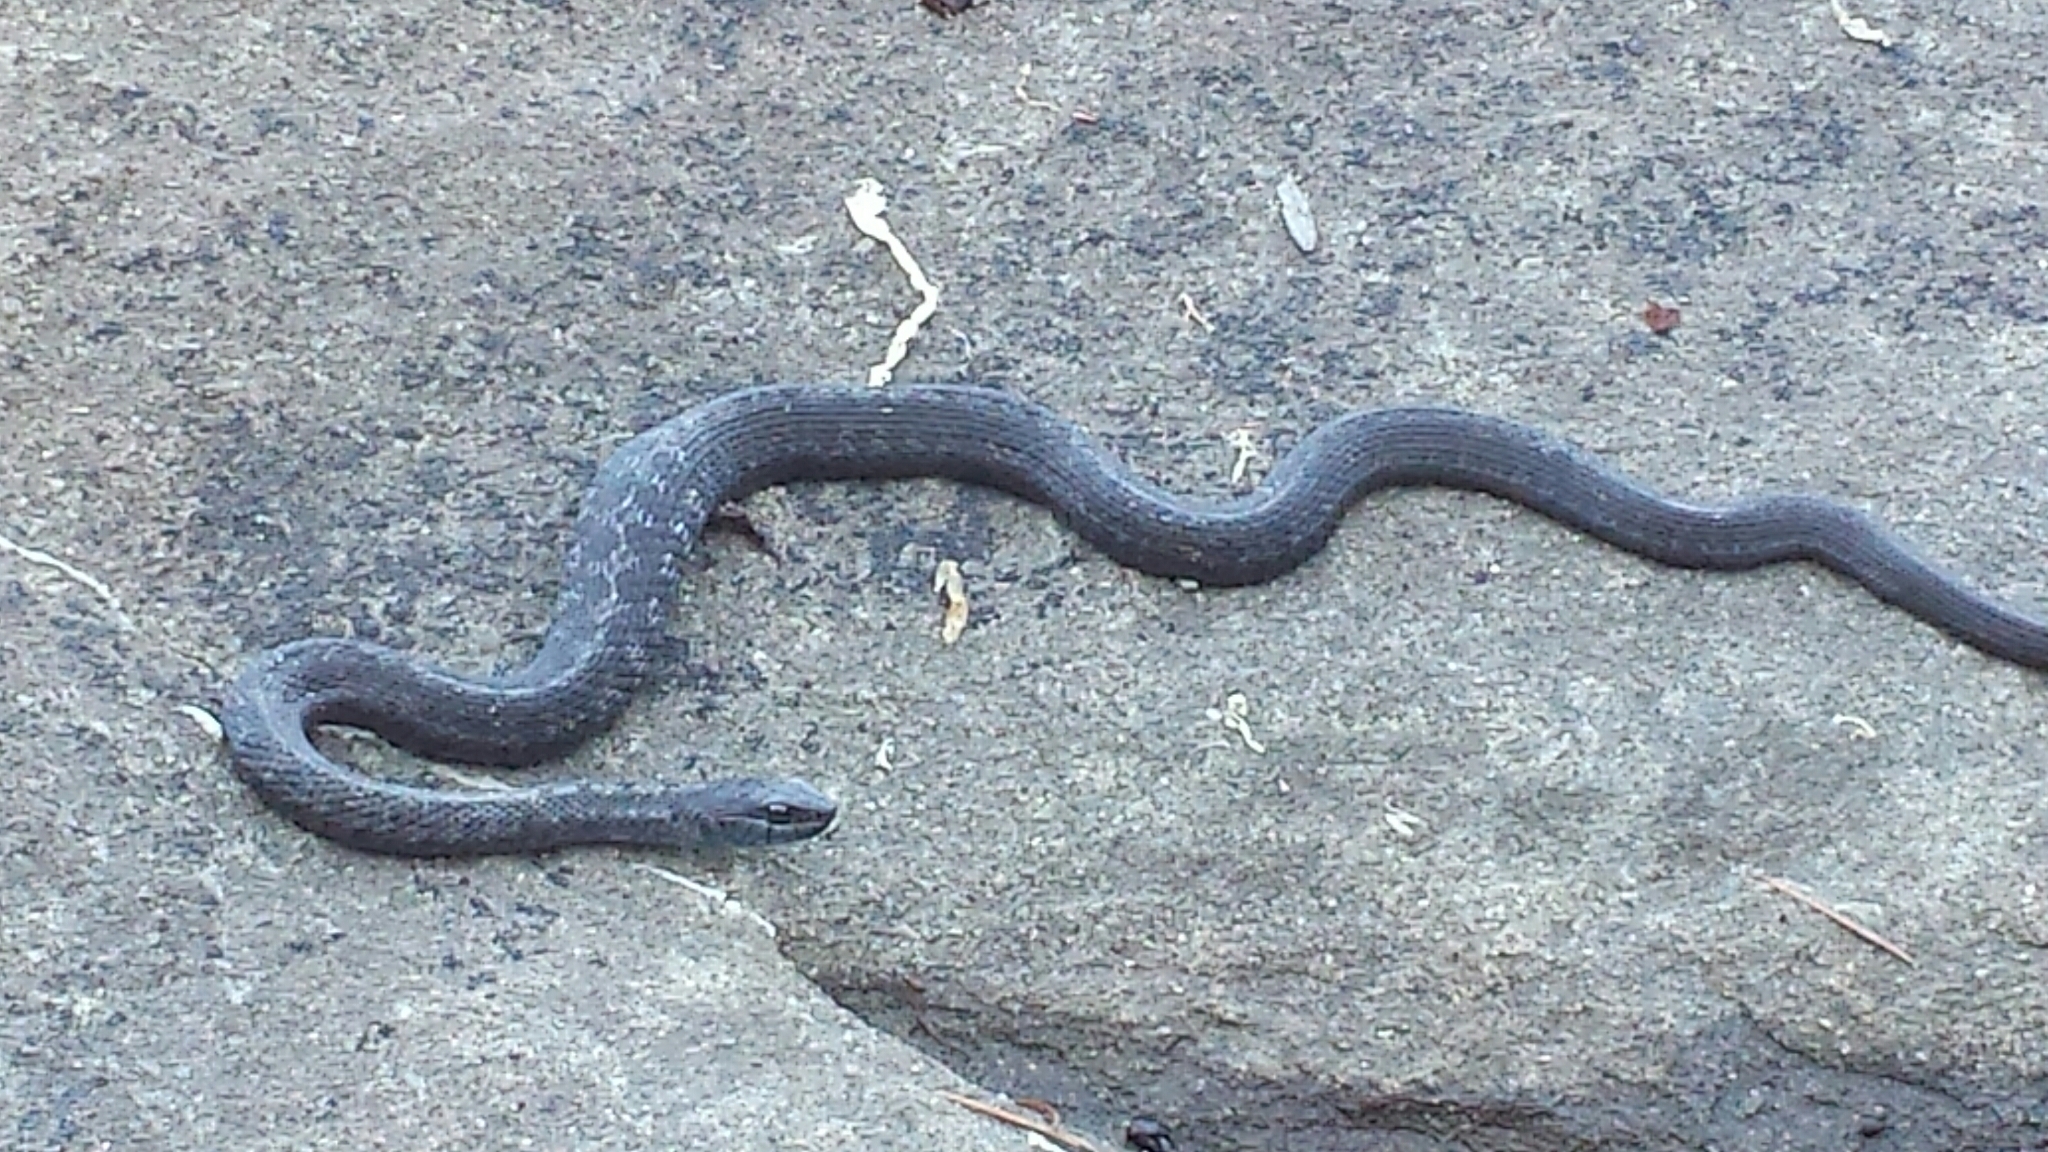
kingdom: Animalia
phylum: Chordata
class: Squamata
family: Colubridae
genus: Thamnophis
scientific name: Thamnophis elegans
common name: Western terrestrial garter snake
